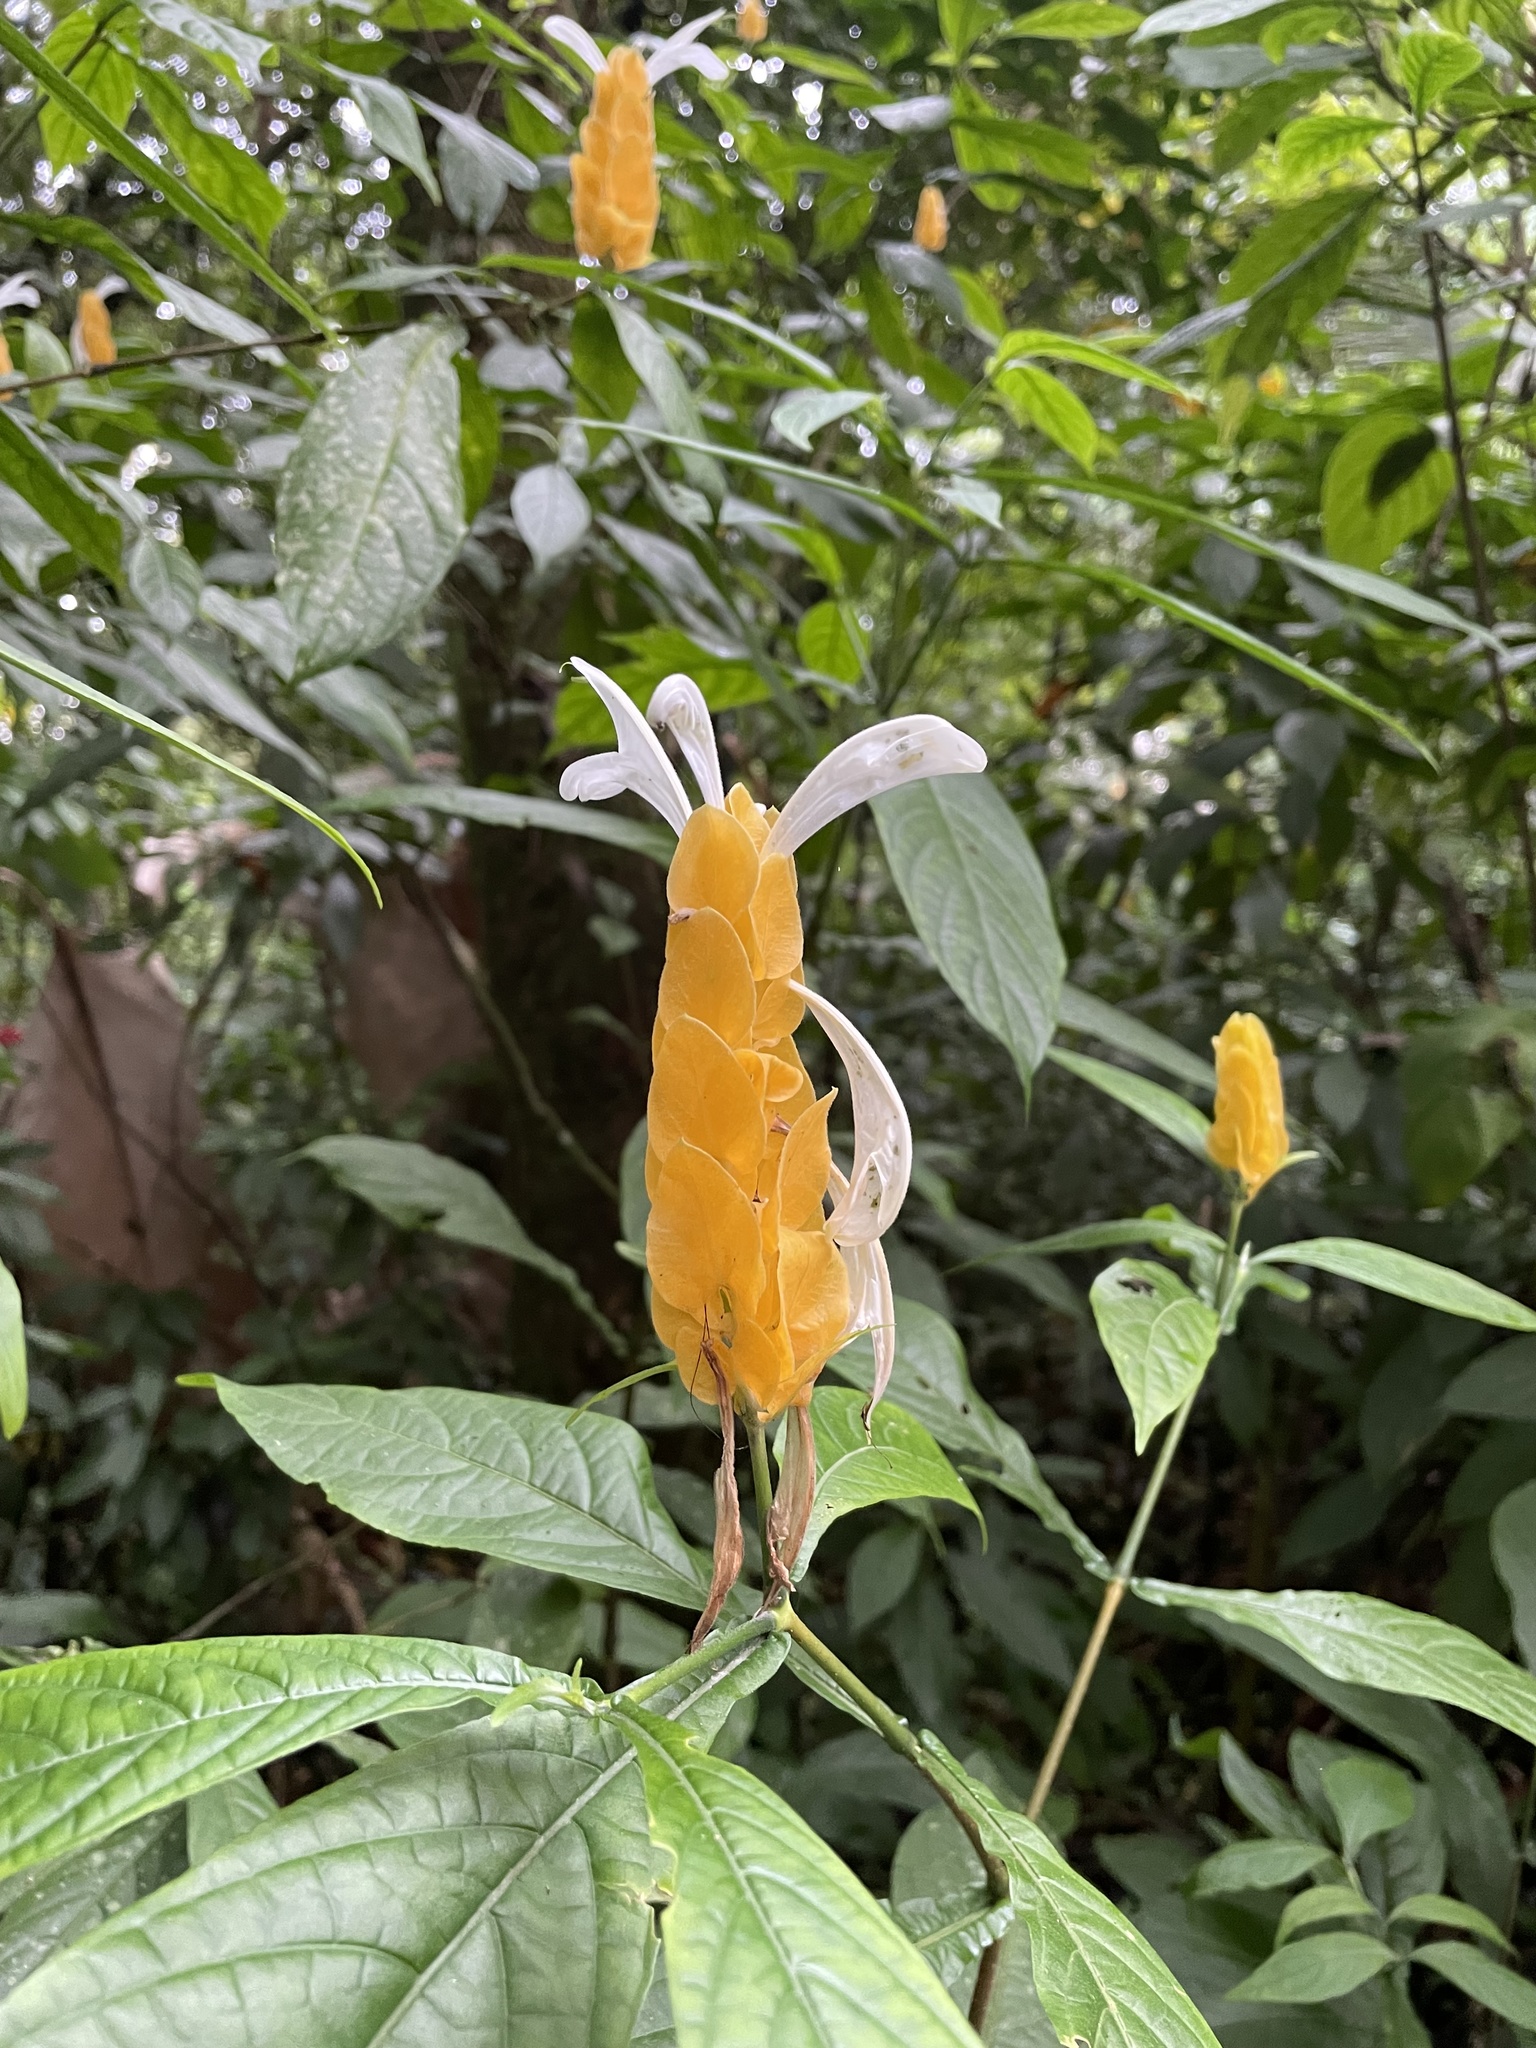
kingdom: Plantae
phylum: Tracheophyta
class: Magnoliopsida
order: Lamiales
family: Acanthaceae
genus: Pachystachys
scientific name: Pachystachys lutea
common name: Golden shrimp-plant
